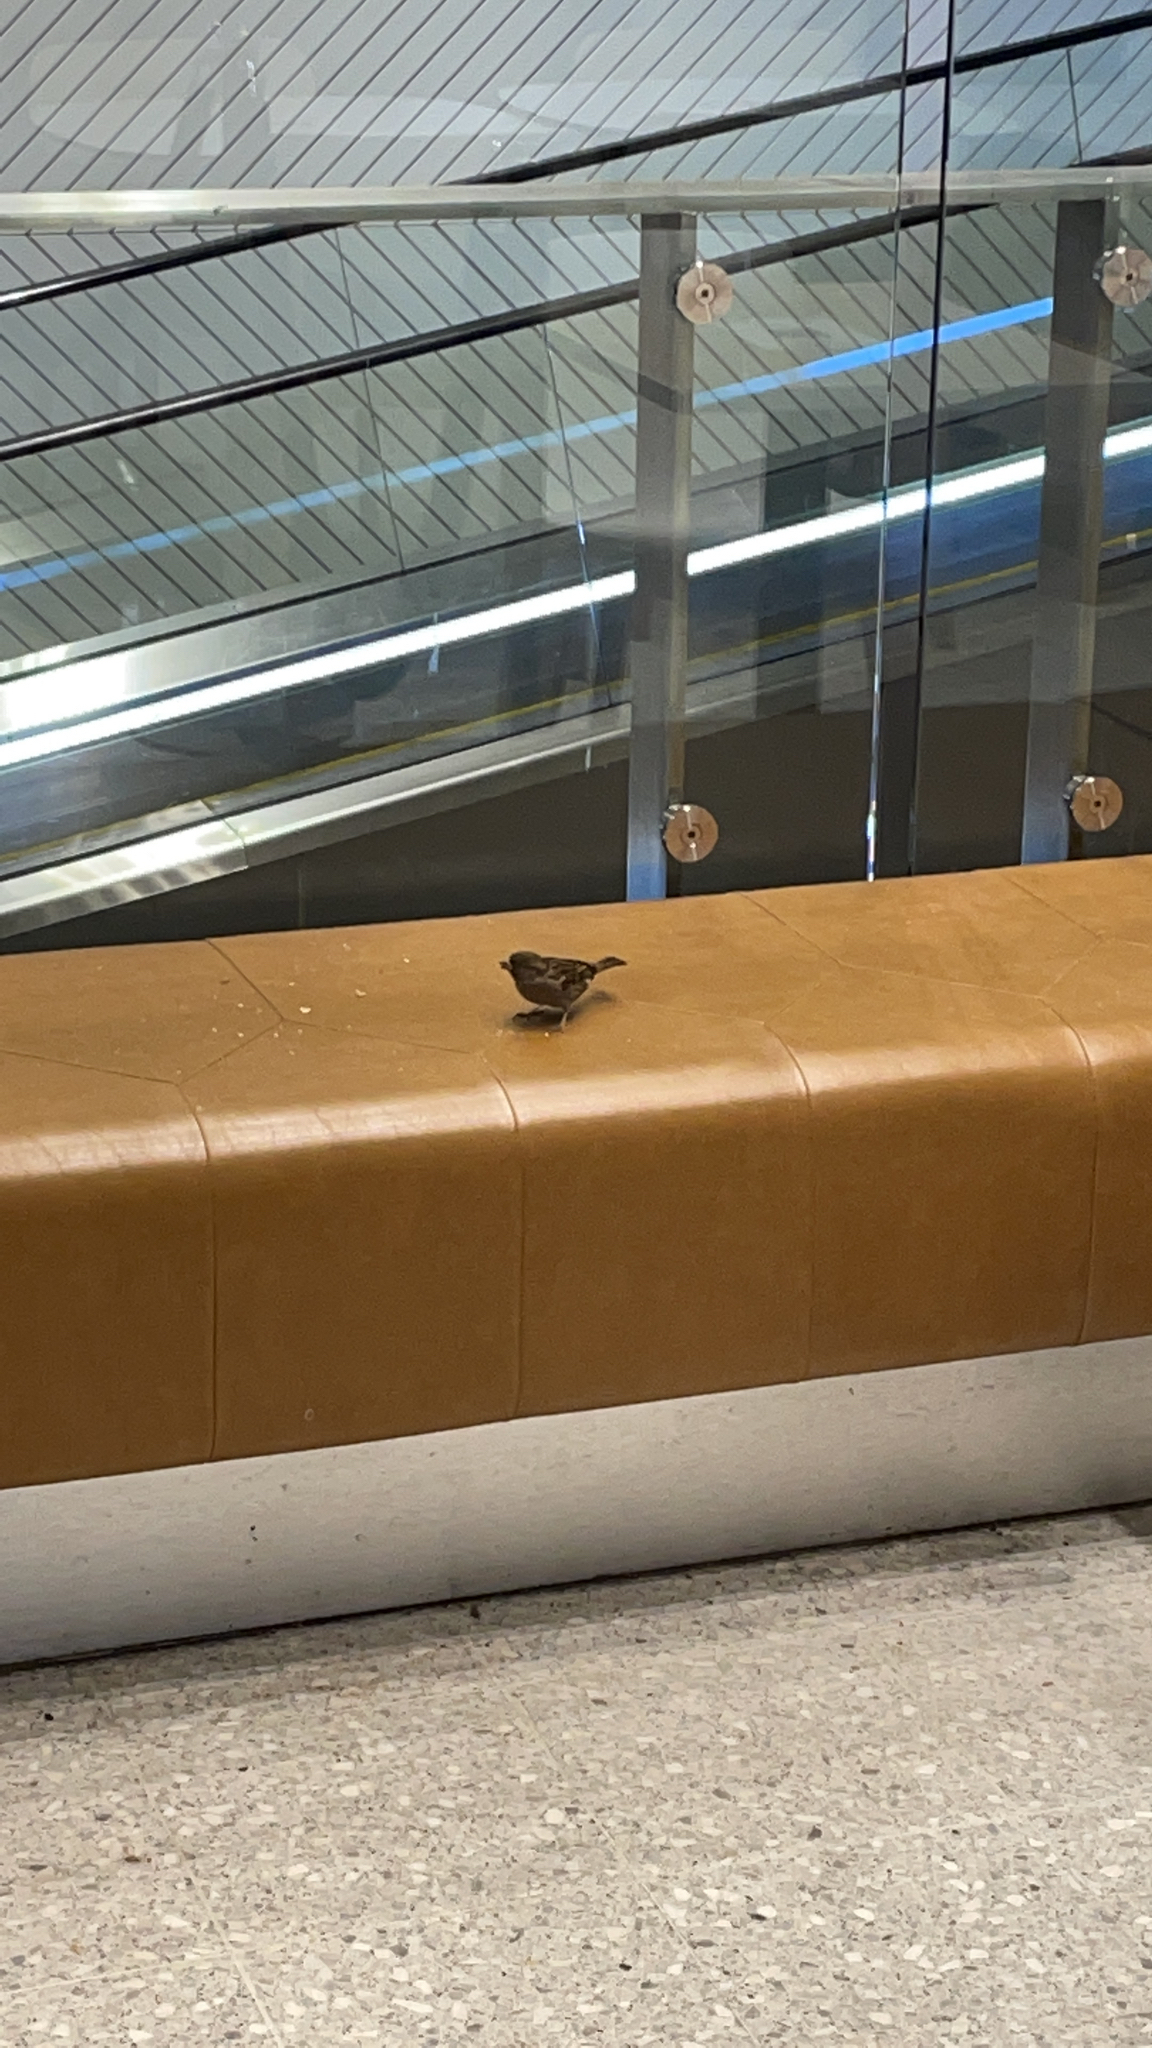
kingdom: Animalia
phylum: Chordata
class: Aves
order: Passeriformes
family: Passeridae
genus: Passer
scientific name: Passer domesticus
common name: House sparrow
